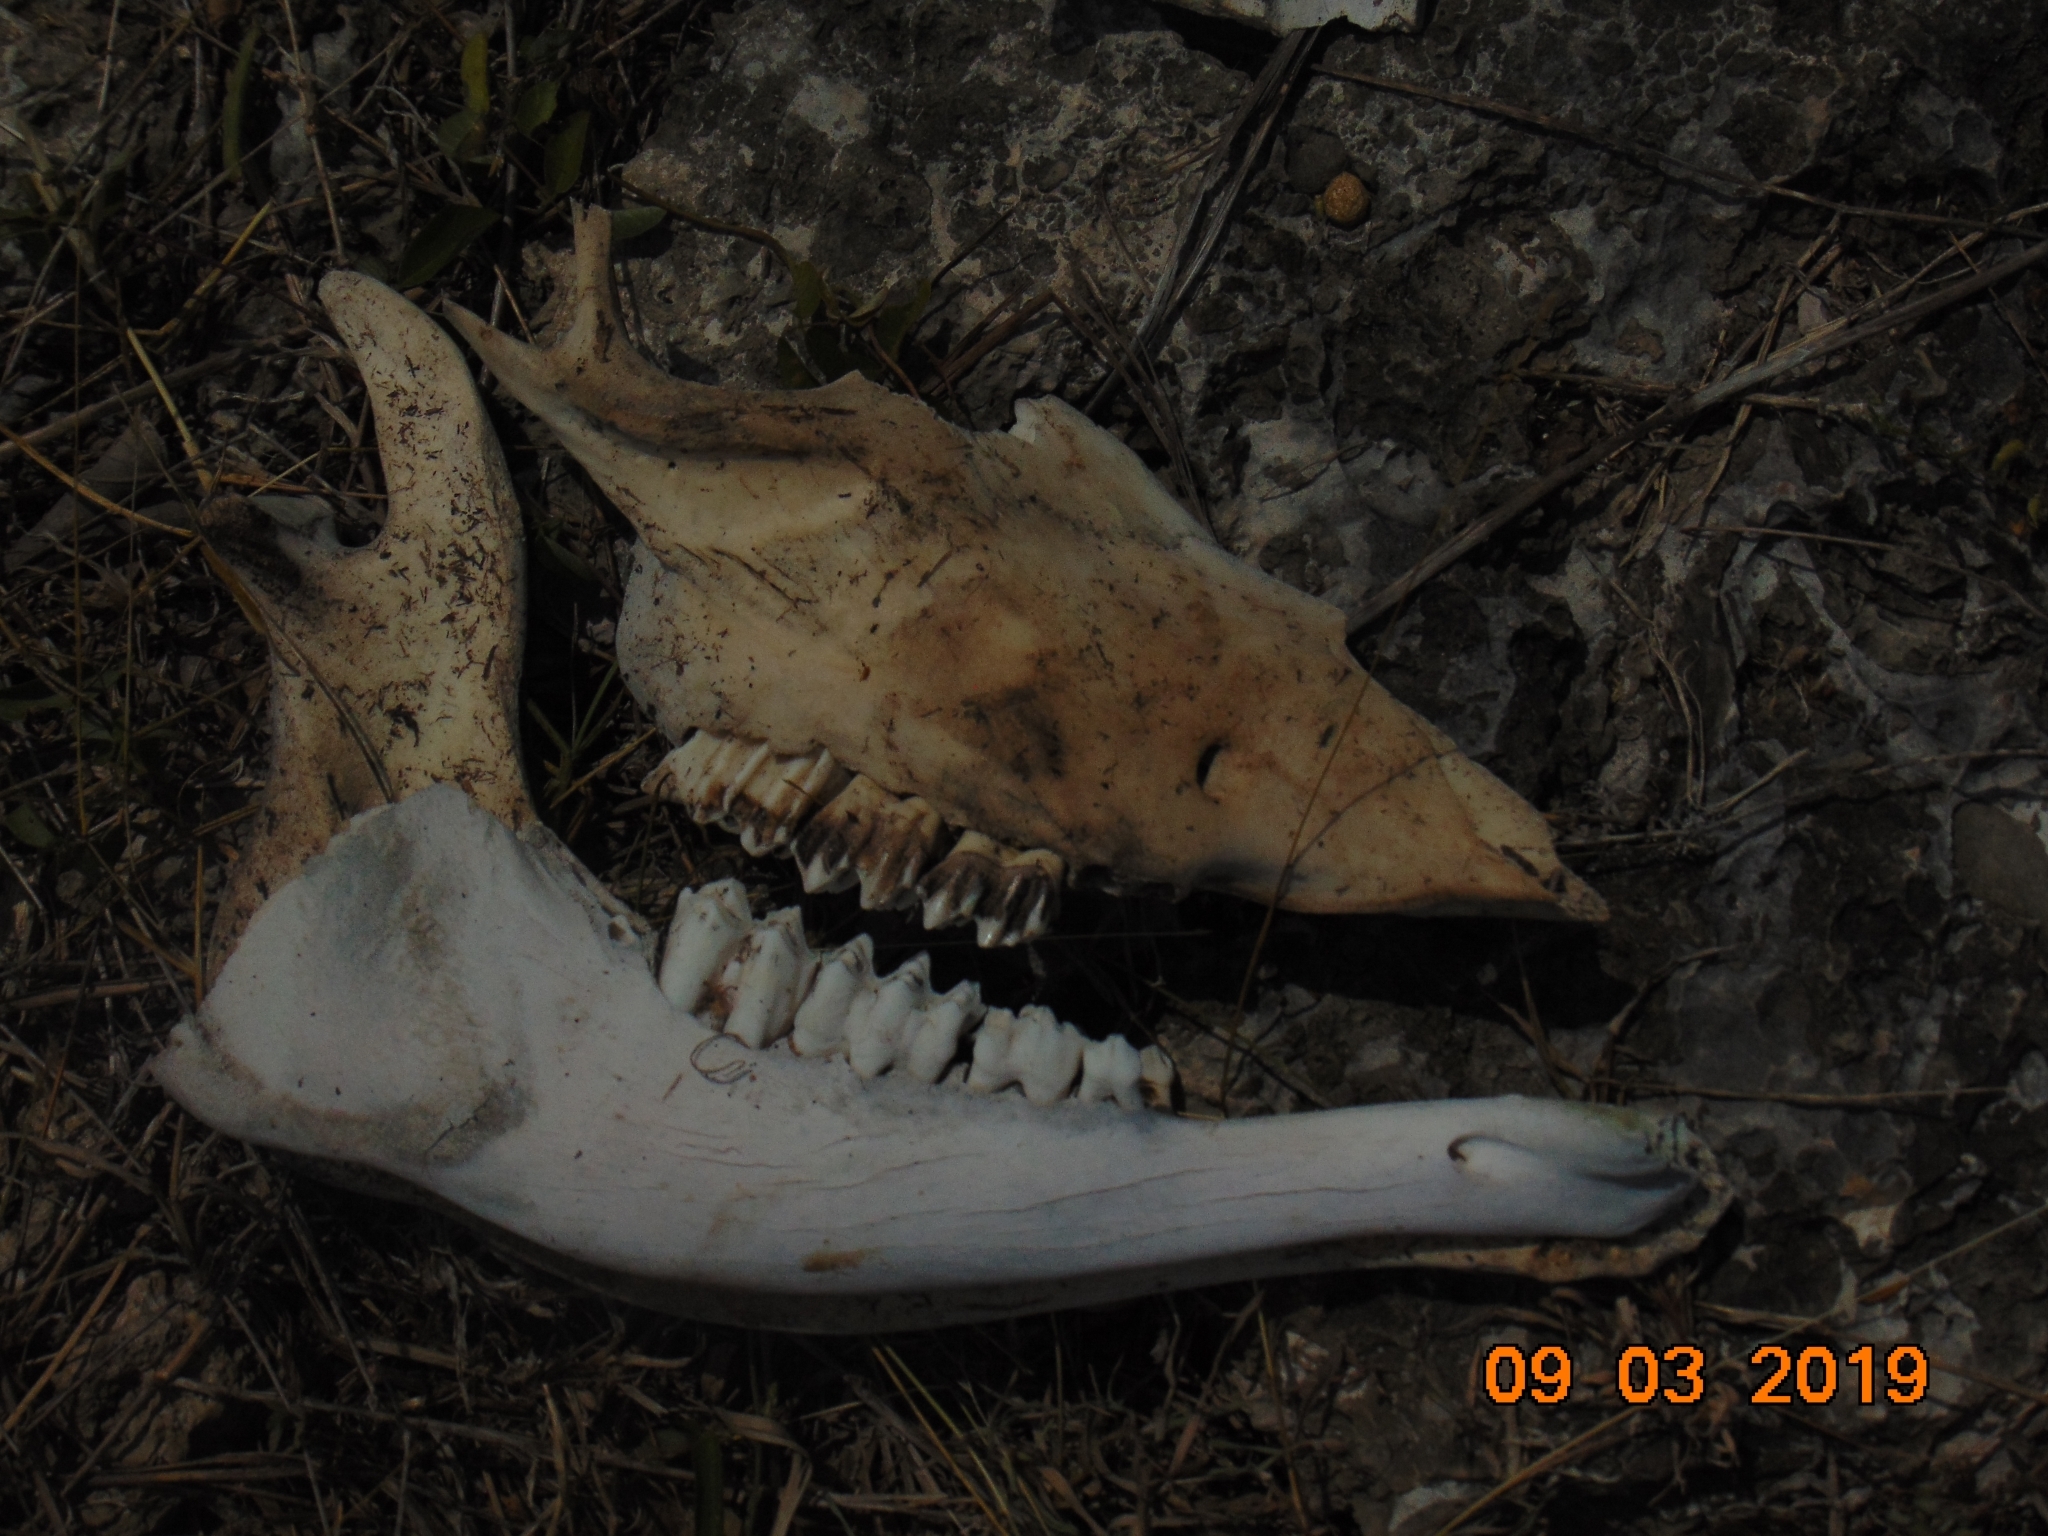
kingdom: Animalia
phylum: Chordata
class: Mammalia
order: Artiodactyla
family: Cervidae
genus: Odocoileus
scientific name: Odocoileus virginianus
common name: White-tailed deer
